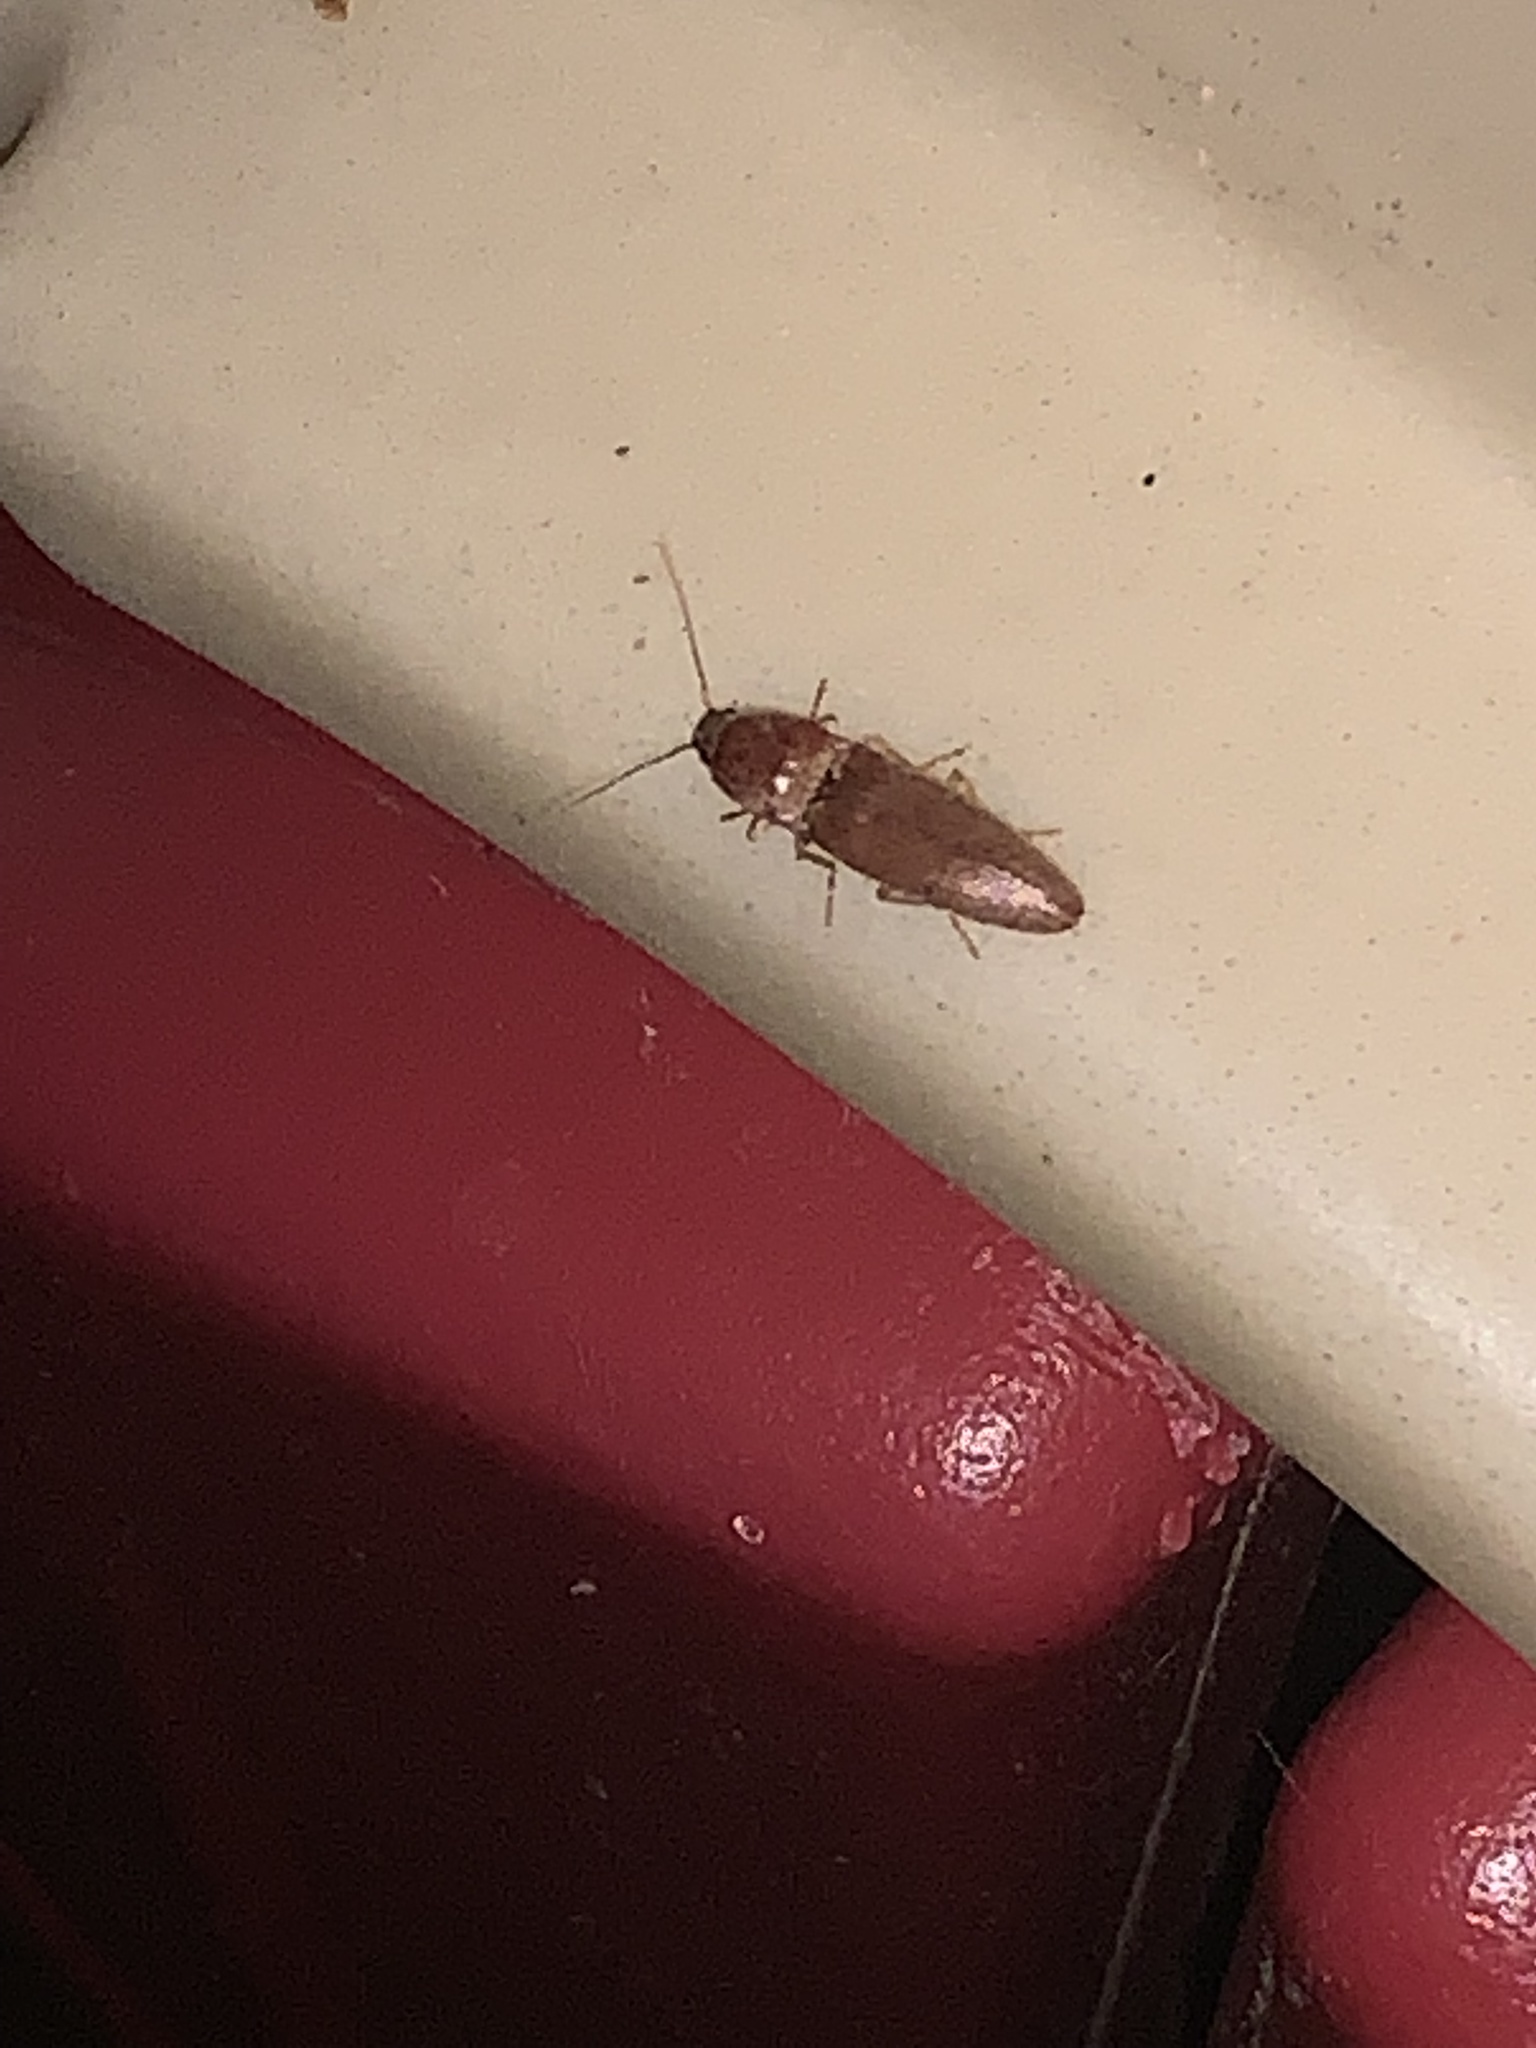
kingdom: Animalia
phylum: Arthropoda
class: Insecta
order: Coleoptera
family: Elateridae
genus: Monocrepidius
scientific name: Monocrepidius lividus
